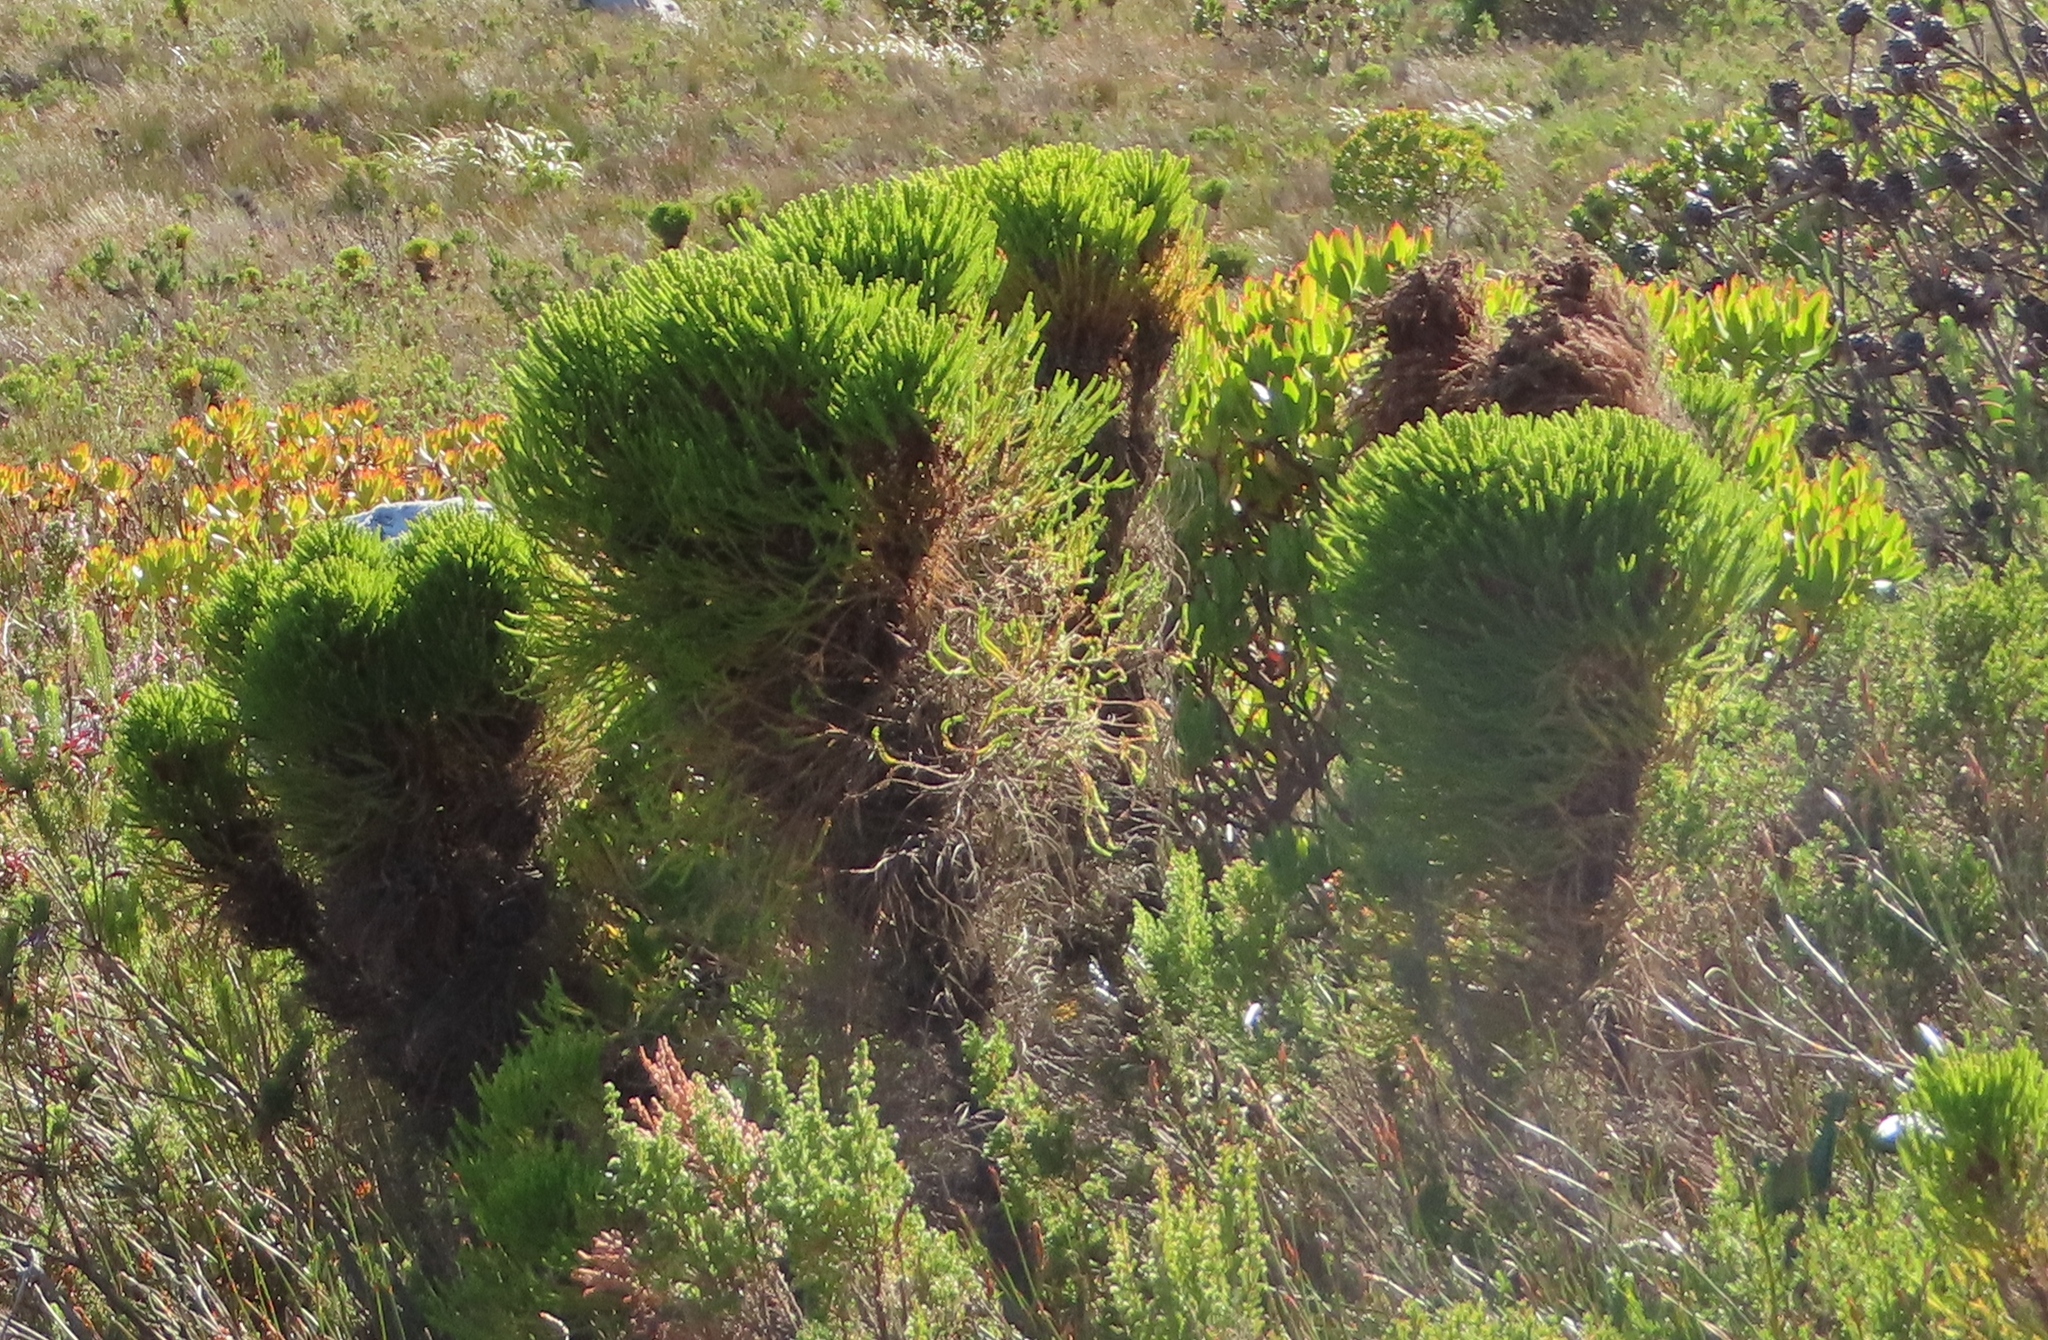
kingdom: Plantae
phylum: Tracheophyta
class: Magnoliopsida
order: Bruniales
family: Bruniaceae
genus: Berzelia
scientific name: Berzelia alopecurioides
